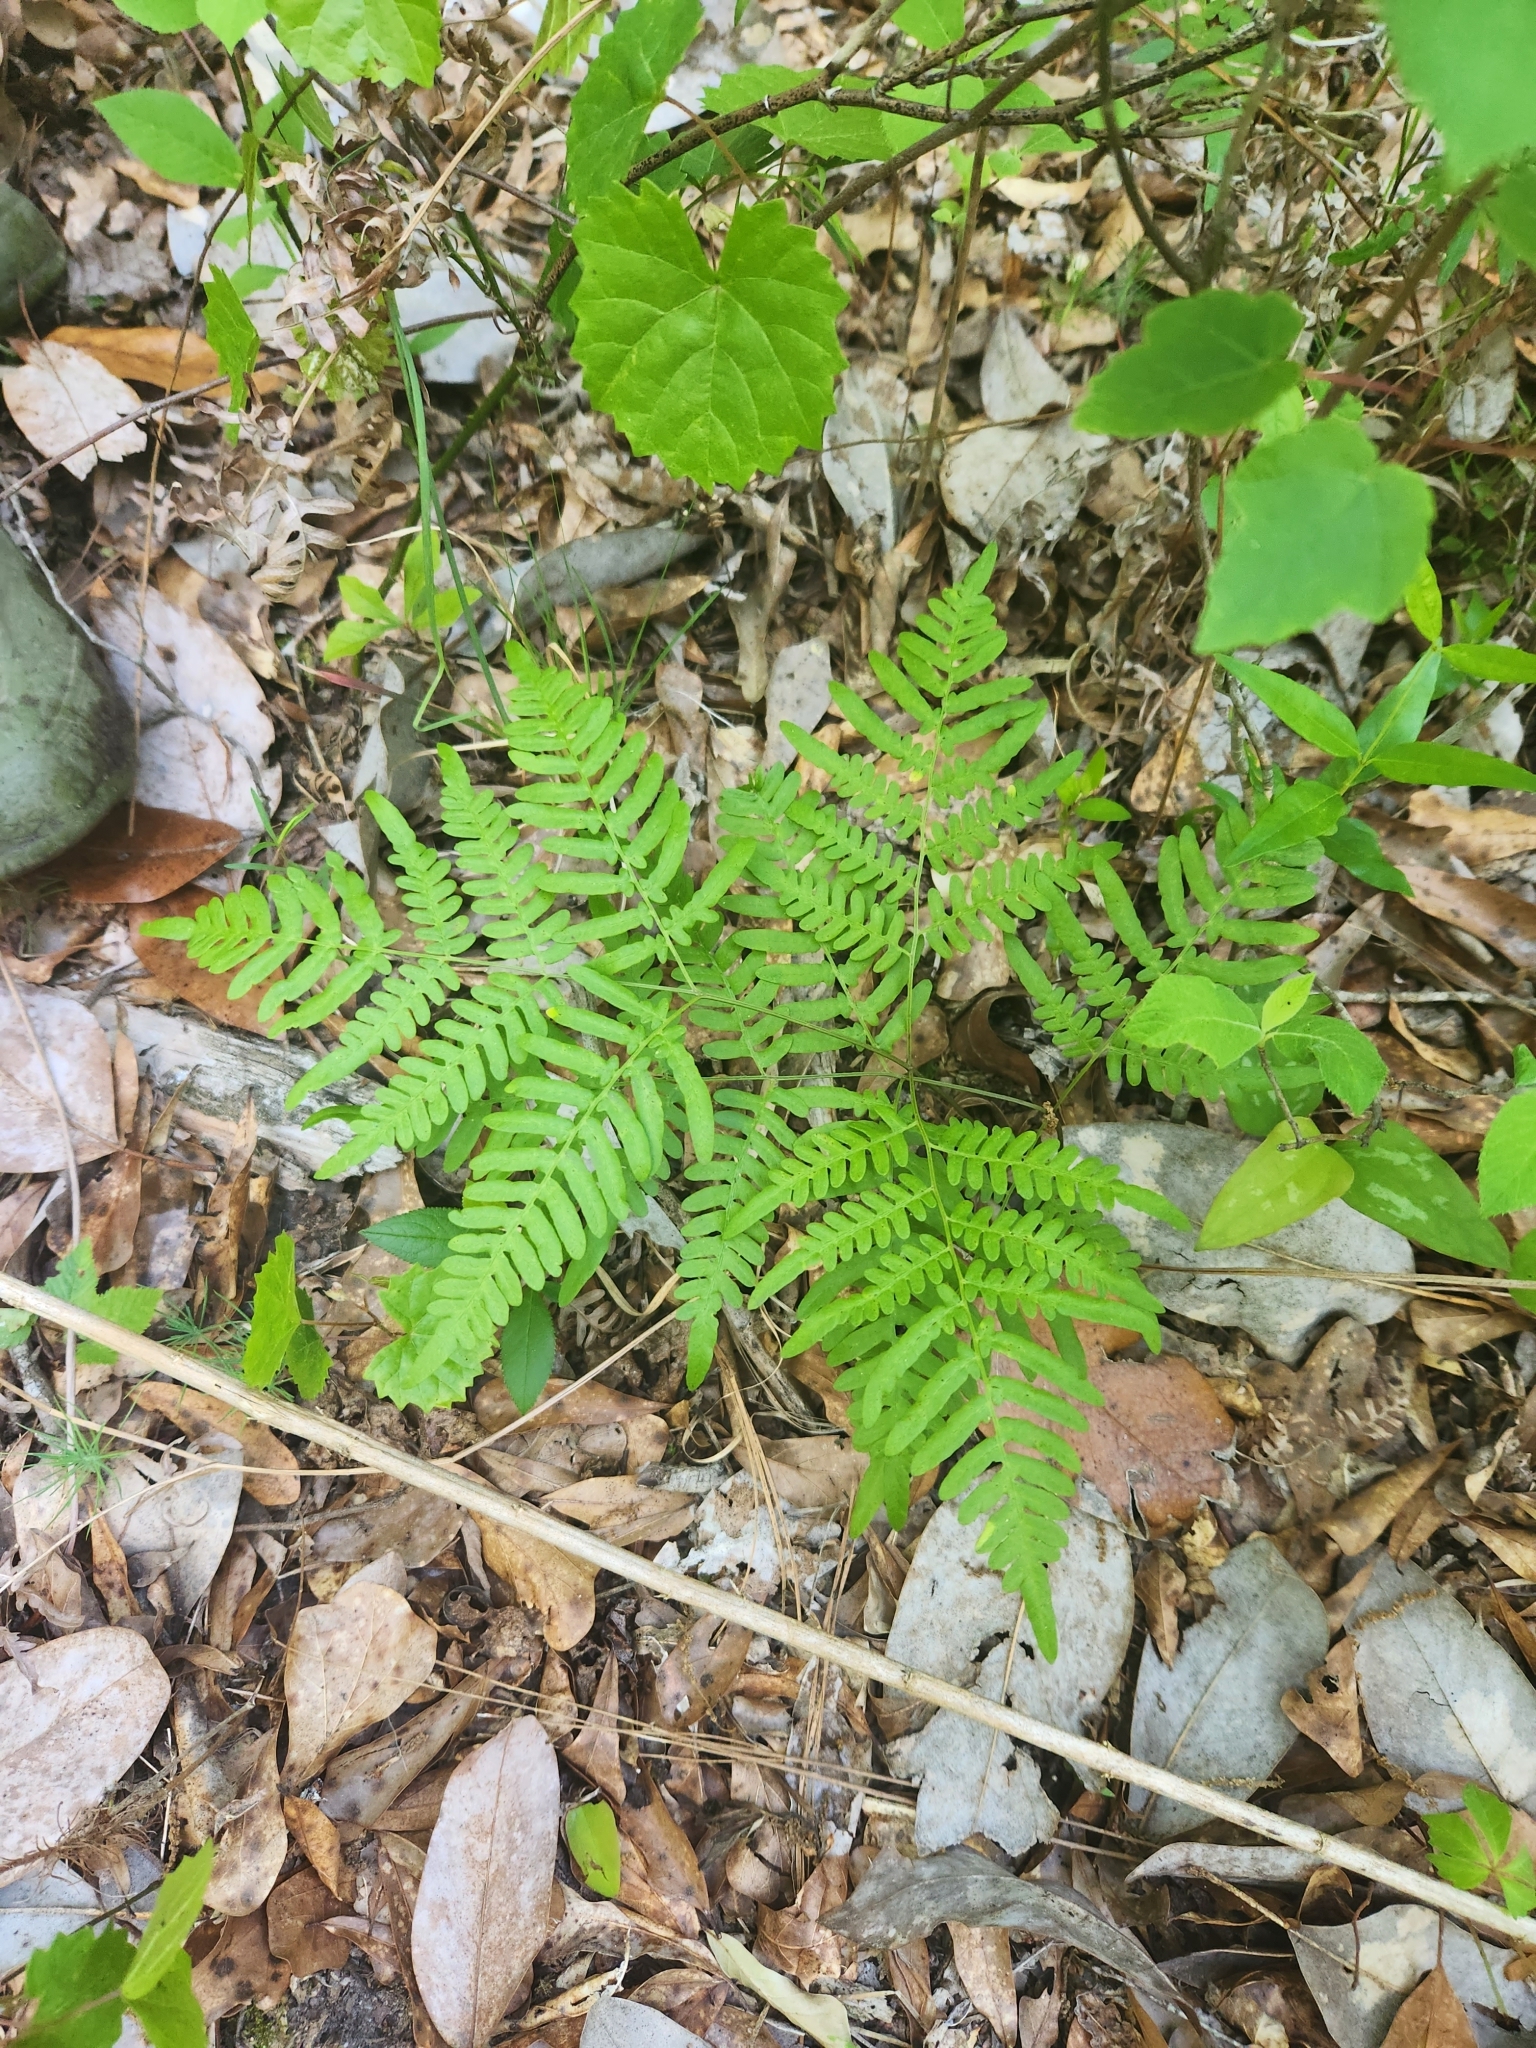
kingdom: Plantae
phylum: Tracheophyta
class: Polypodiopsida
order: Polypodiales
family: Dennstaedtiaceae
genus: Pteridium
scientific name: Pteridium aquilinum
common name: Bracken
